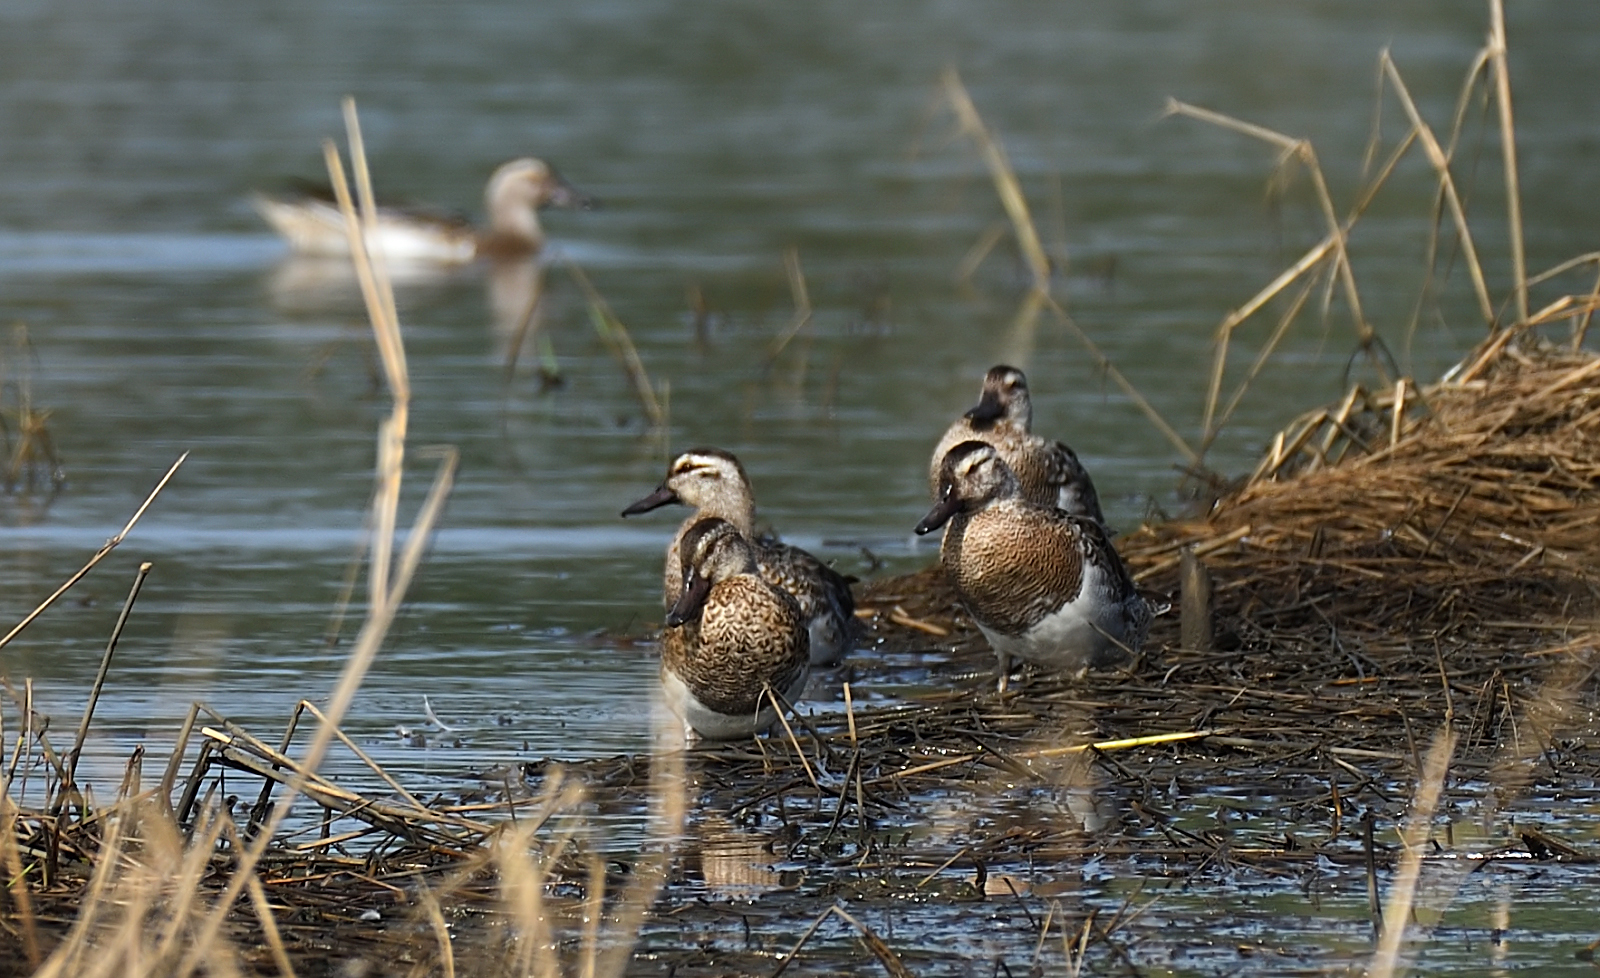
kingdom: Animalia
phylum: Chordata
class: Aves
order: Anseriformes
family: Anatidae
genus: Spatula
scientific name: Spatula querquedula
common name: Garganey
